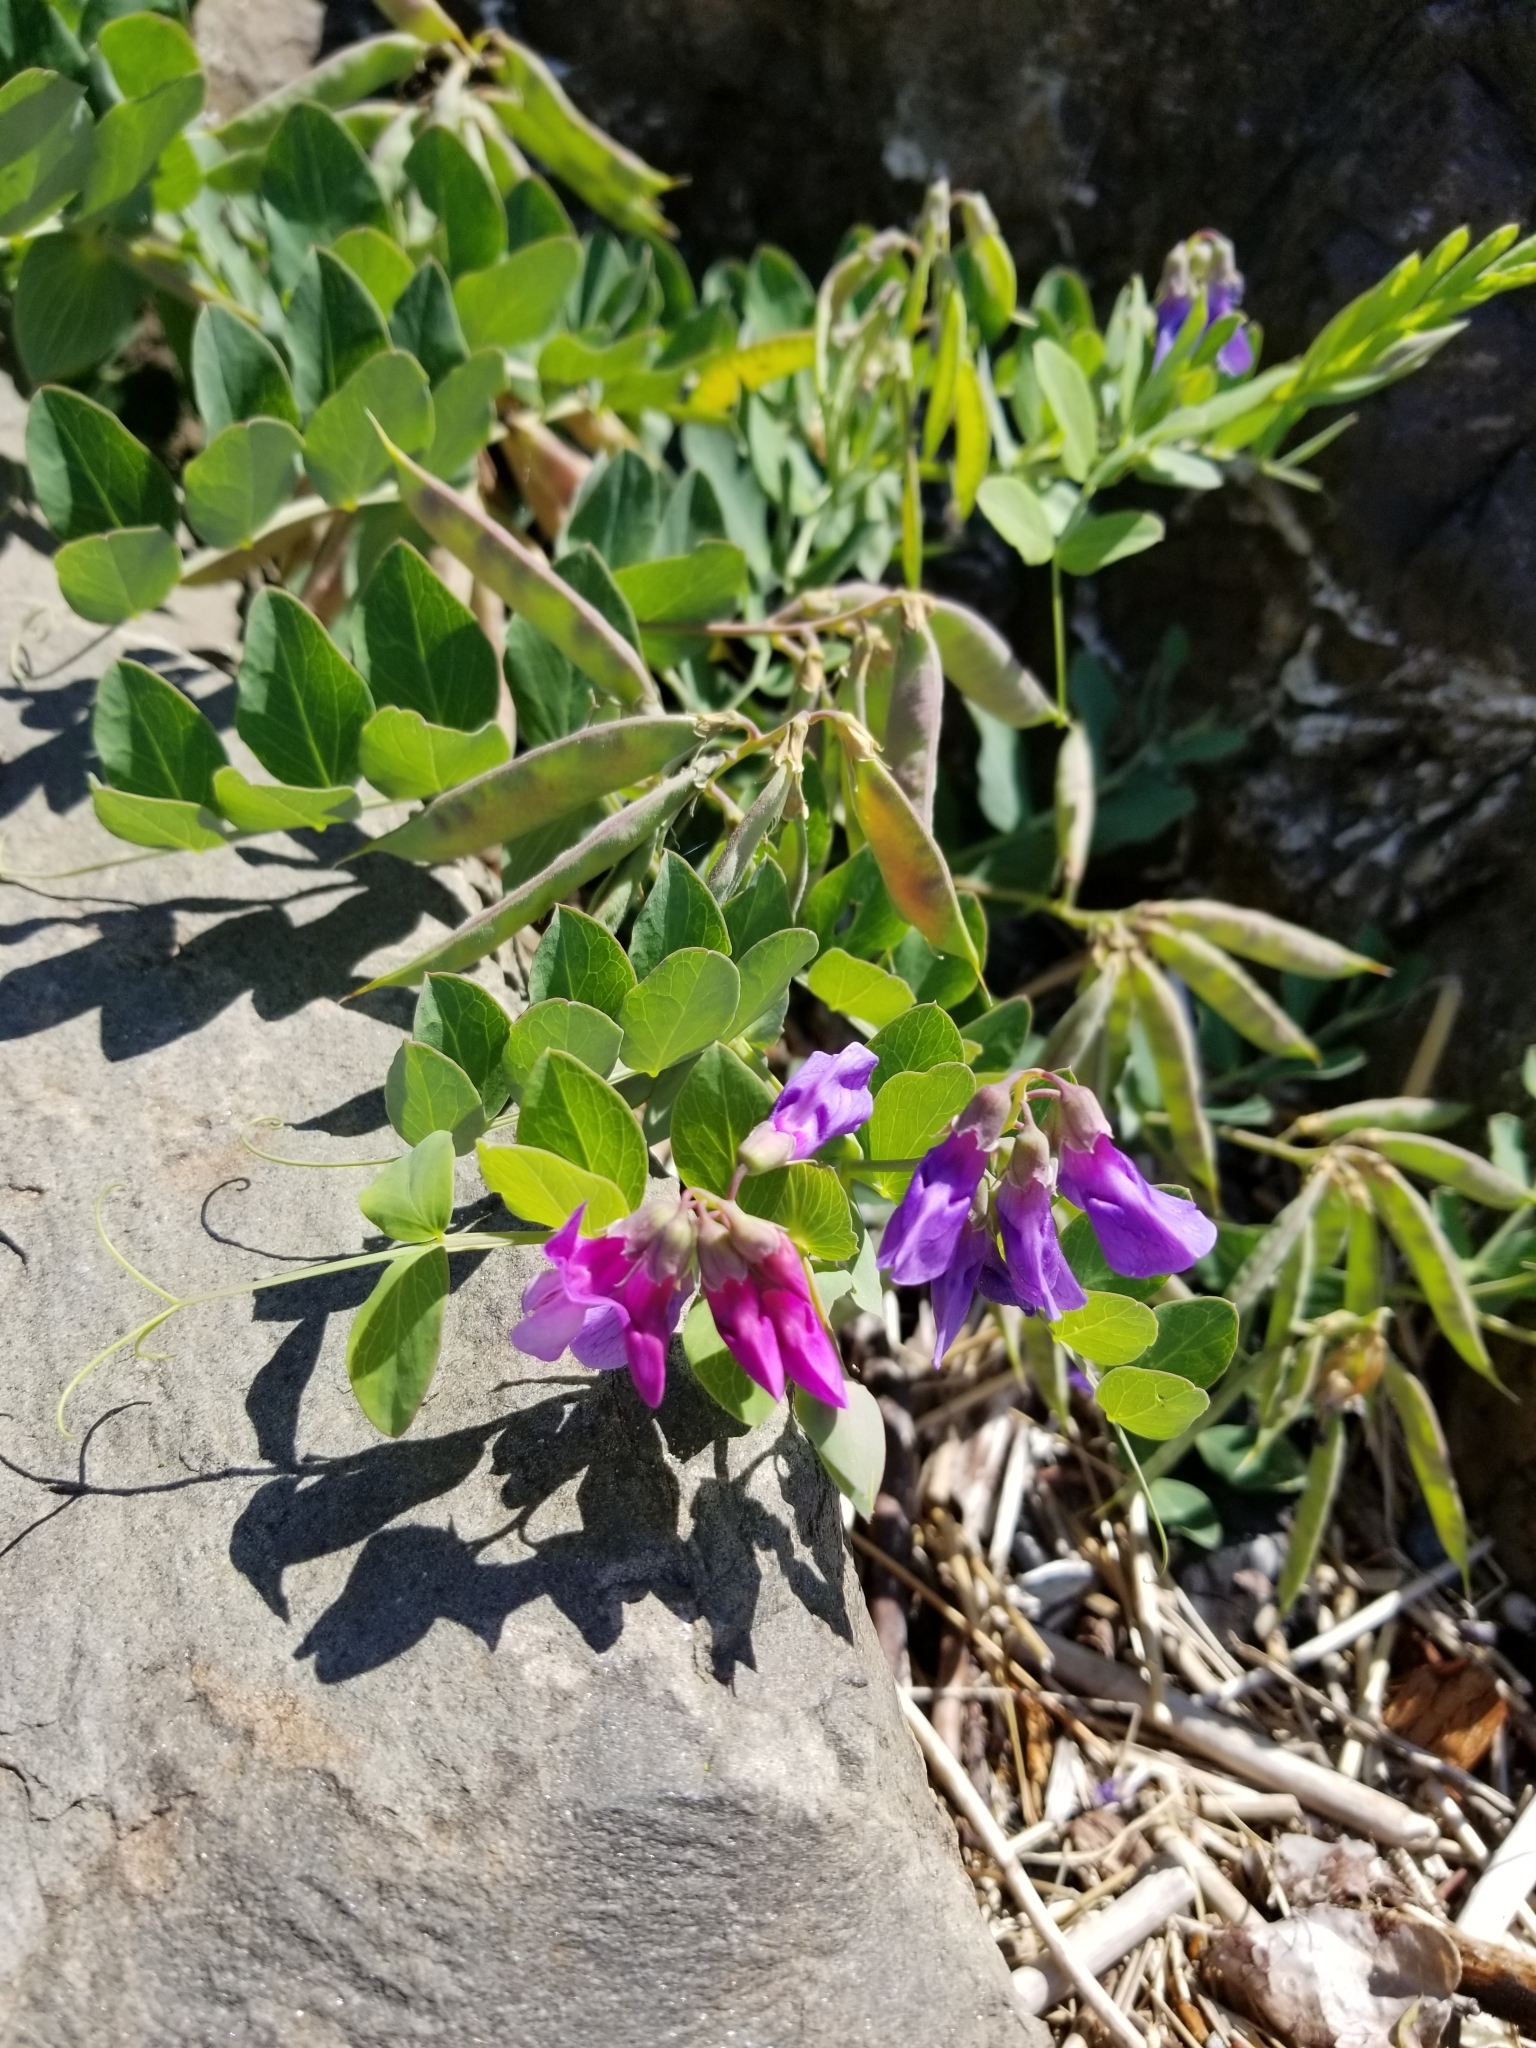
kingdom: Plantae
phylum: Tracheophyta
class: Magnoliopsida
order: Fabales
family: Fabaceae
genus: Lathyrus
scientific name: Lathyrus japonicus
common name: Sea pea
